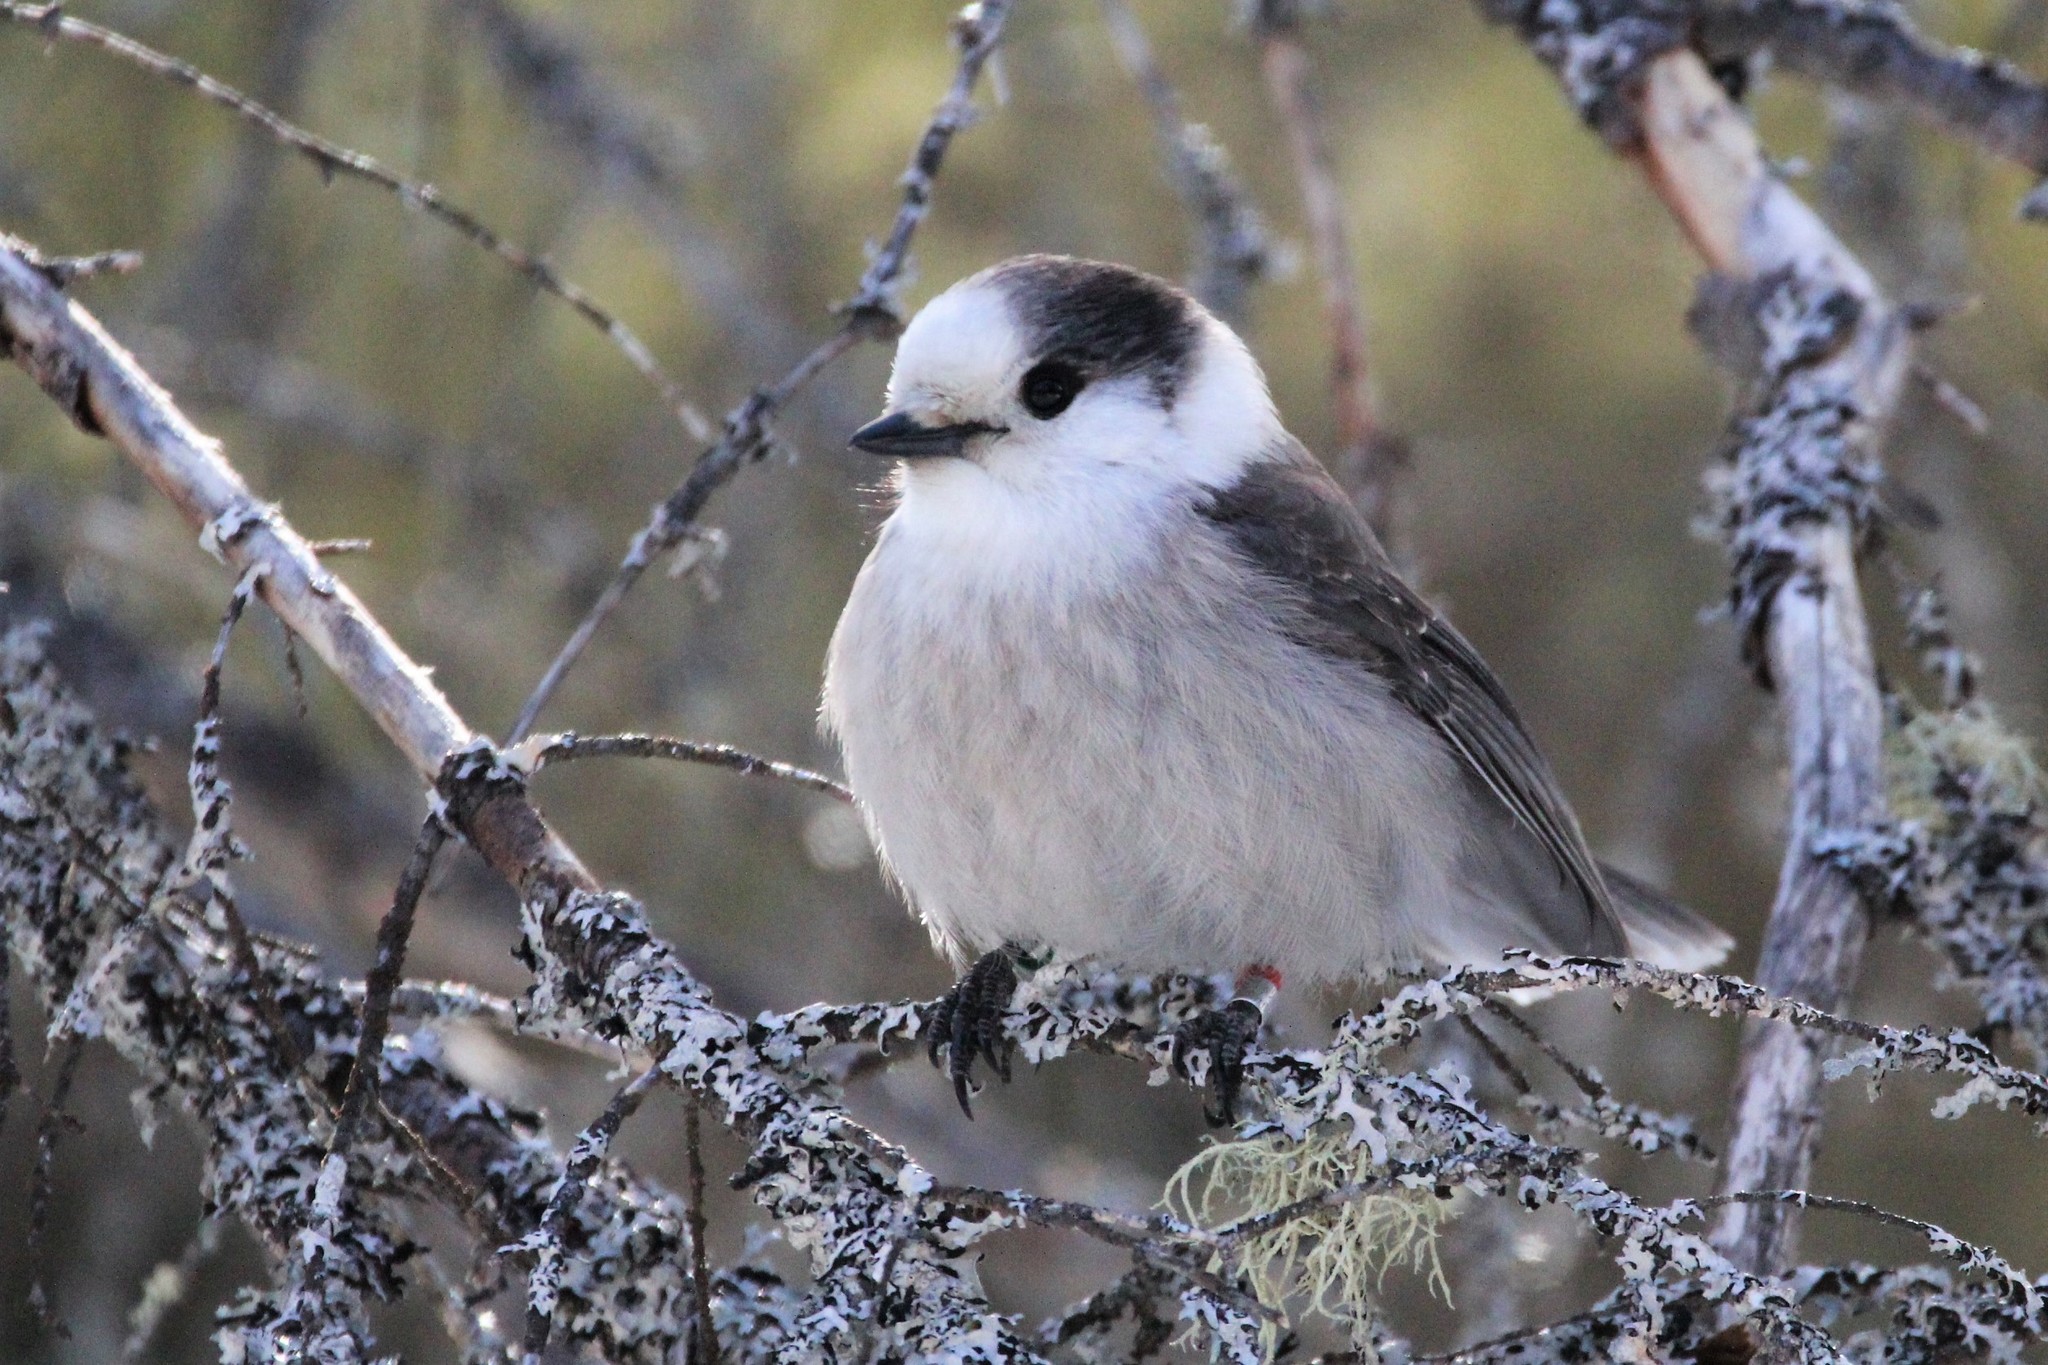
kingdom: Animalia
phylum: Chordata
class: Aves
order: Passeriformes
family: Corvidae
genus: Perisoreus
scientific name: Perisoreus canadensis
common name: Gray jay
